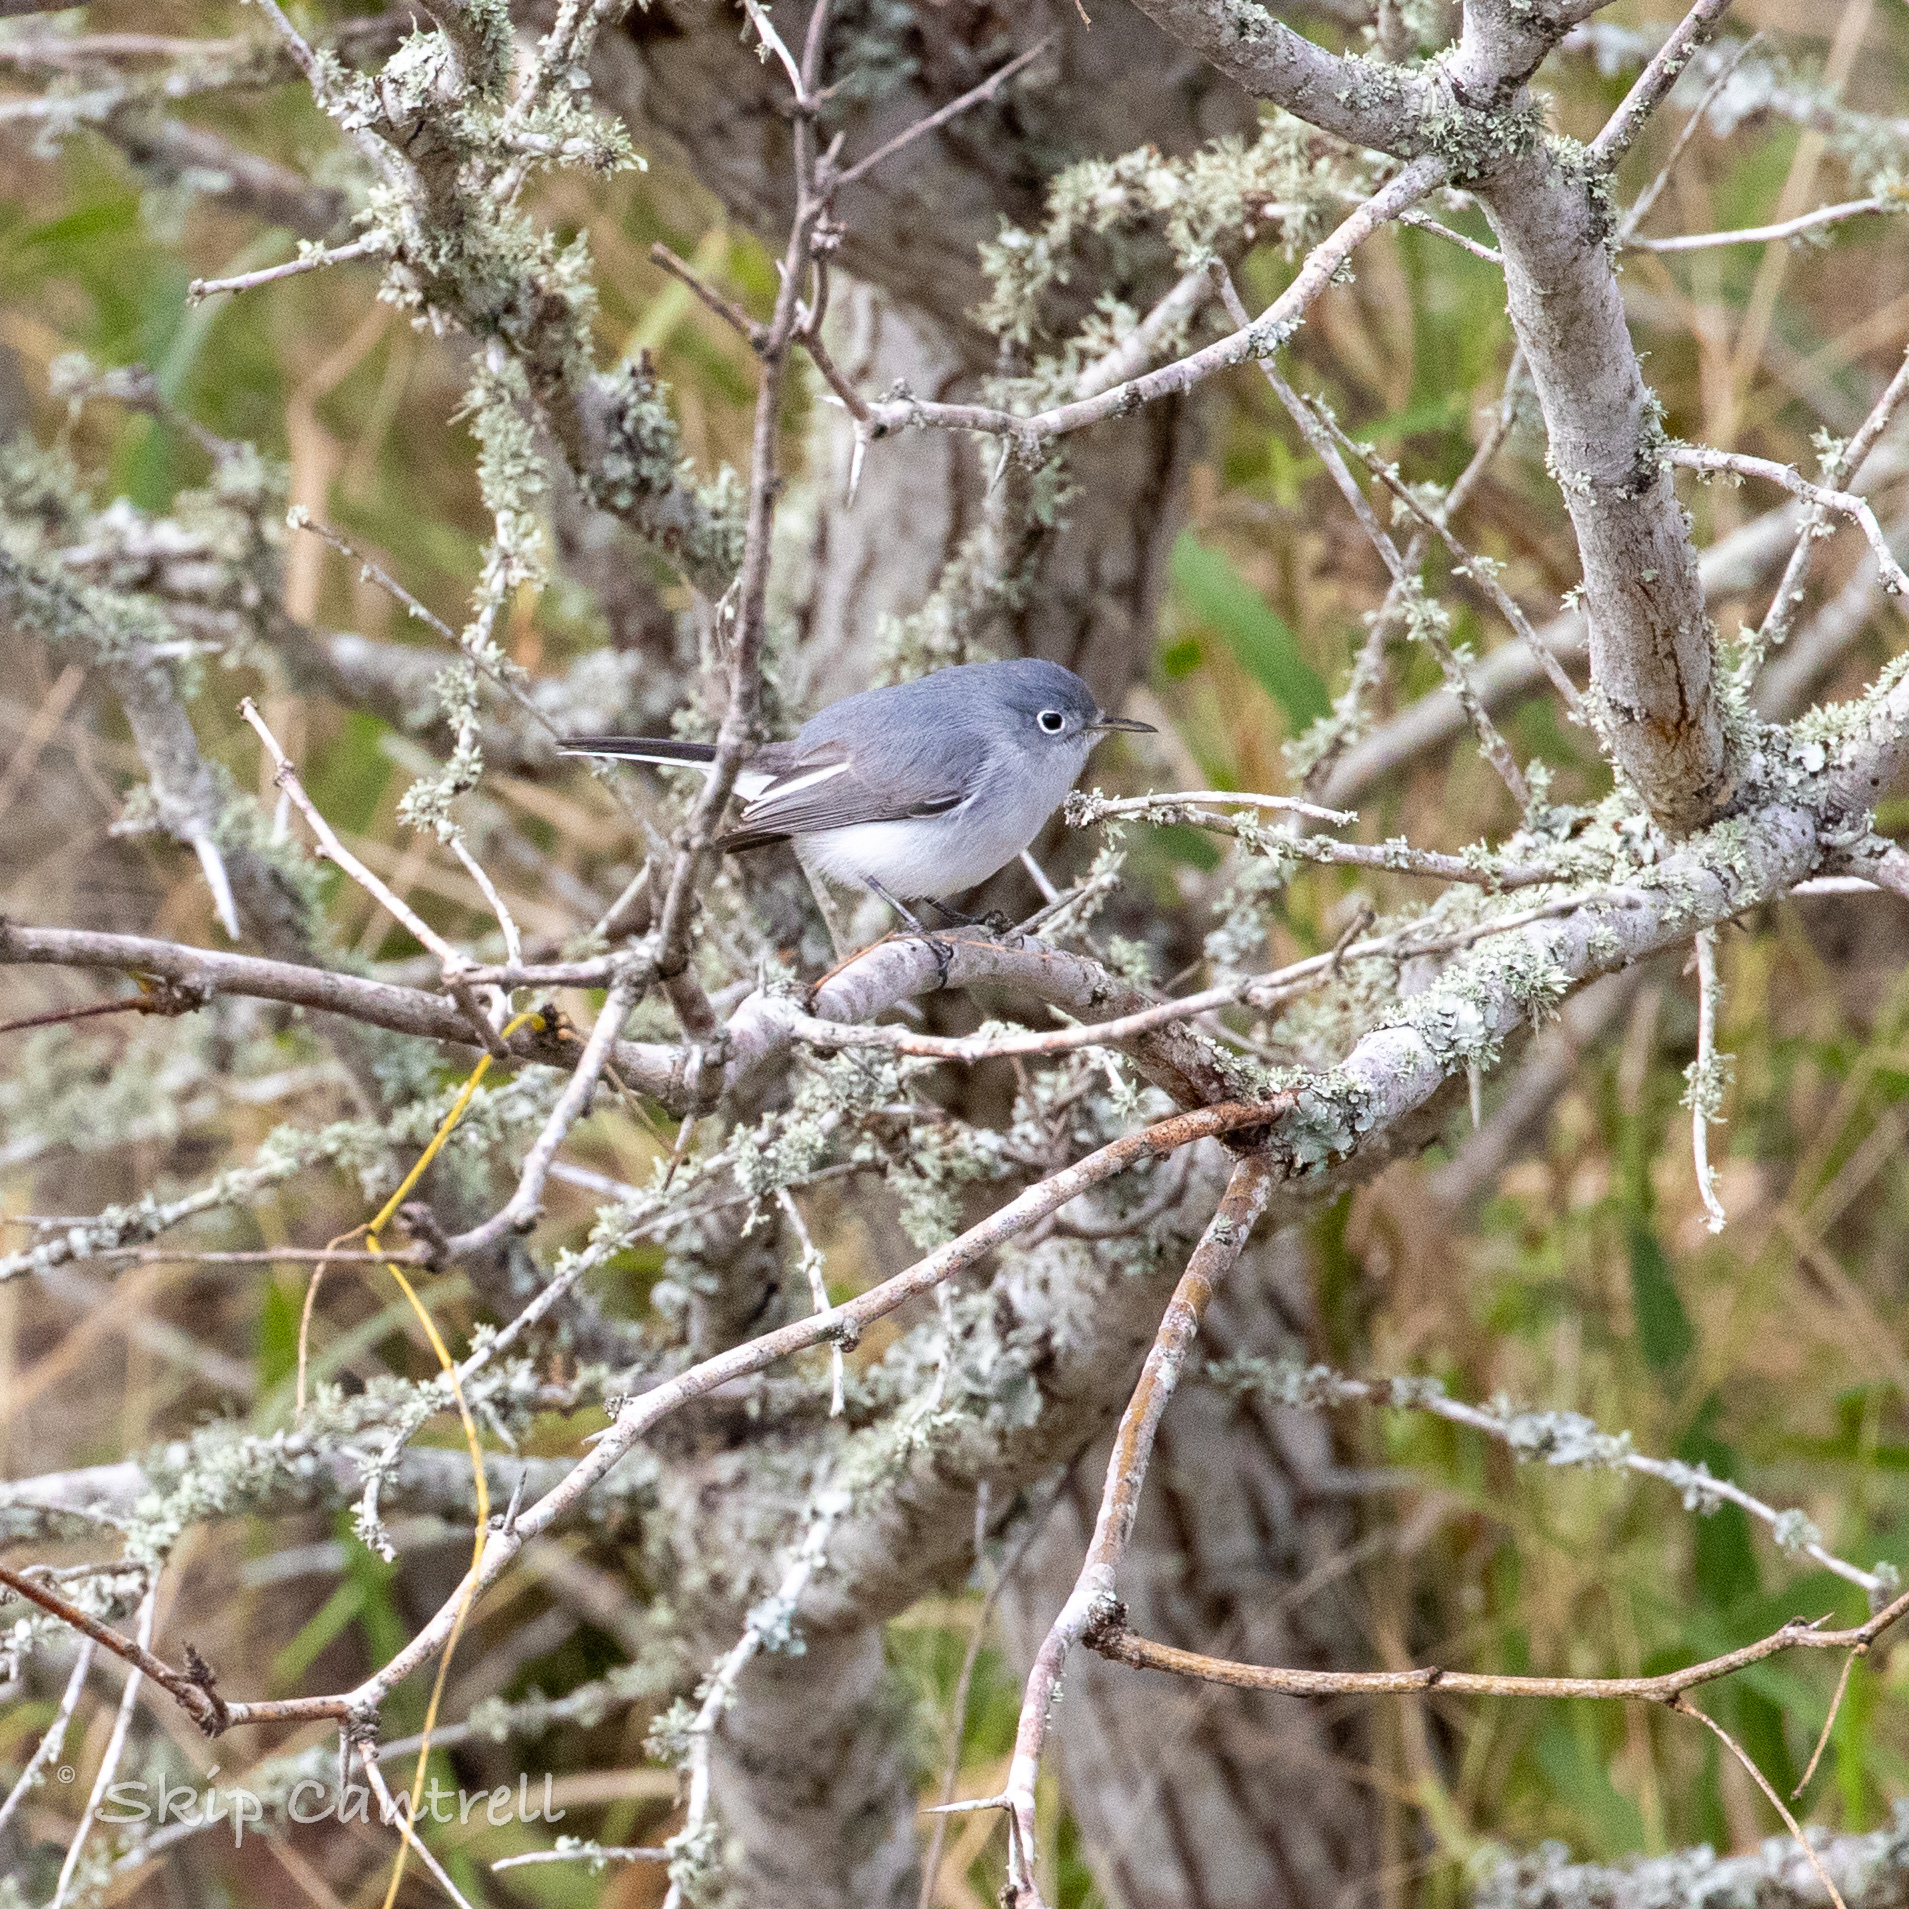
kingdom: Animalia
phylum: Chordata
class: Aves
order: Passeriformes
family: Polioptilidae
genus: Polioptila
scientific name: Polioptila caerulea
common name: Blue-gray gnatcatcher
